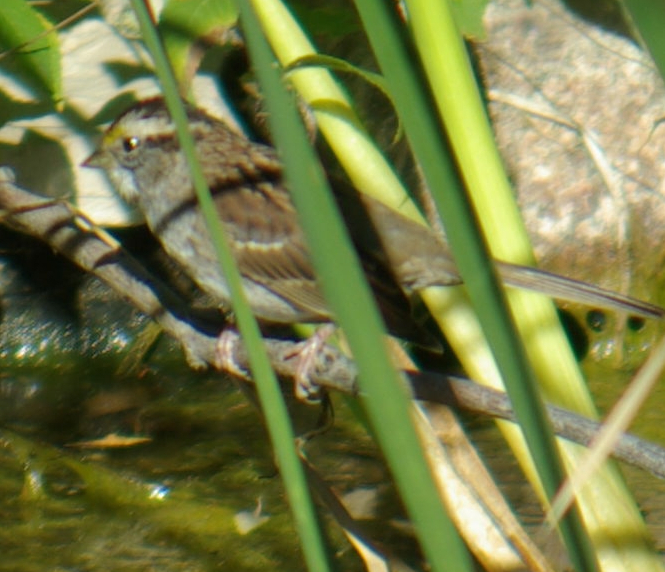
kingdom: Animalia
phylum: Chordata
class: Aves
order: Passeriformes
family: Passerellidae
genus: Zonotrichia
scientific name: Zonotrichia albicollis
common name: White-throated sparrow
